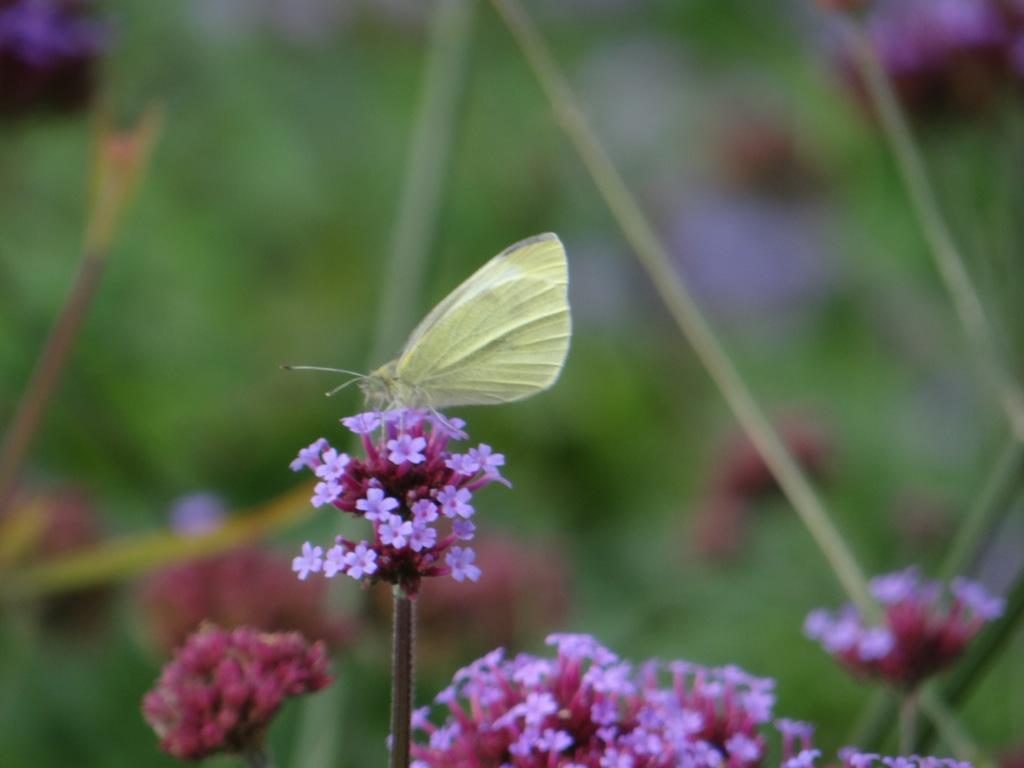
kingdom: Animalia
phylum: Arthropoda
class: Insecta
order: Lepidoptera
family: Pieridae
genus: Pieris
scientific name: Pieris rapae
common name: Small white
